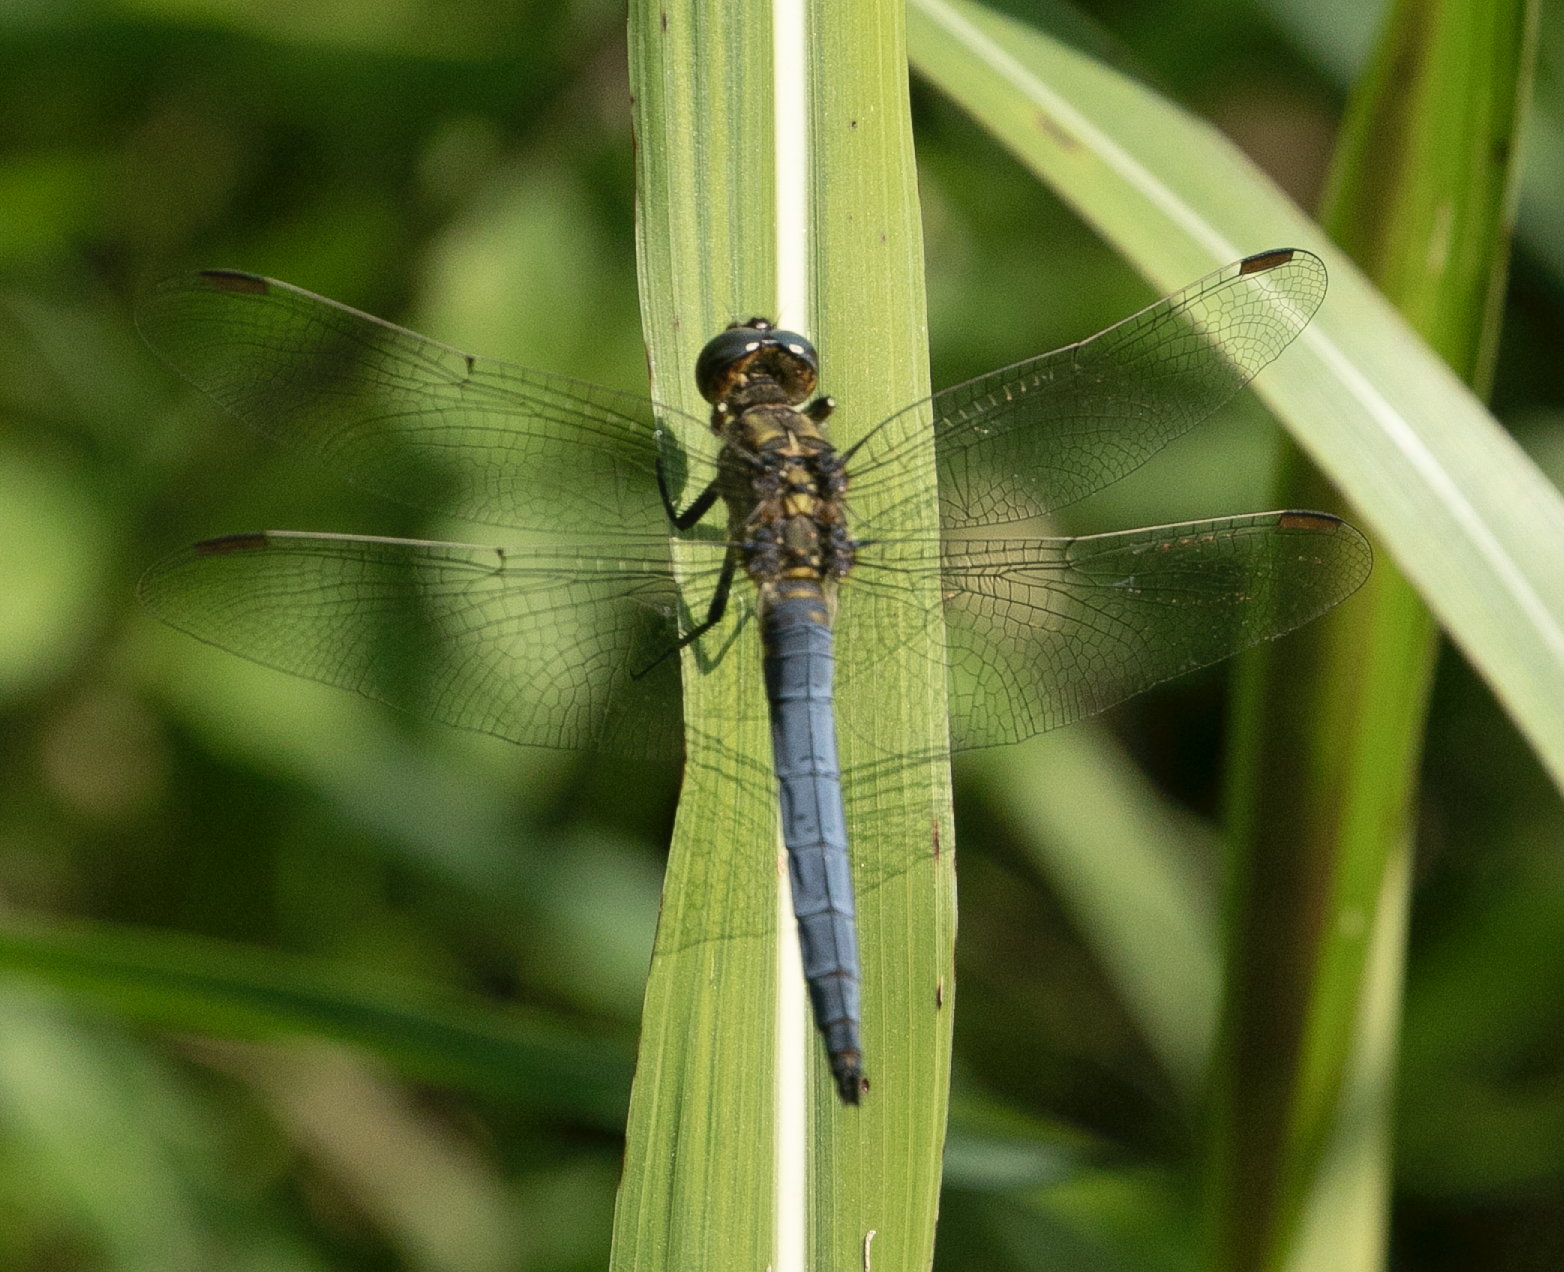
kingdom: Animalia
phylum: Arthropoda
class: Insecta
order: Odonata
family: Libellulidae
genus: Orthetrum
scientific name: Orthetrum coerulescens
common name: Keeled skimmer
